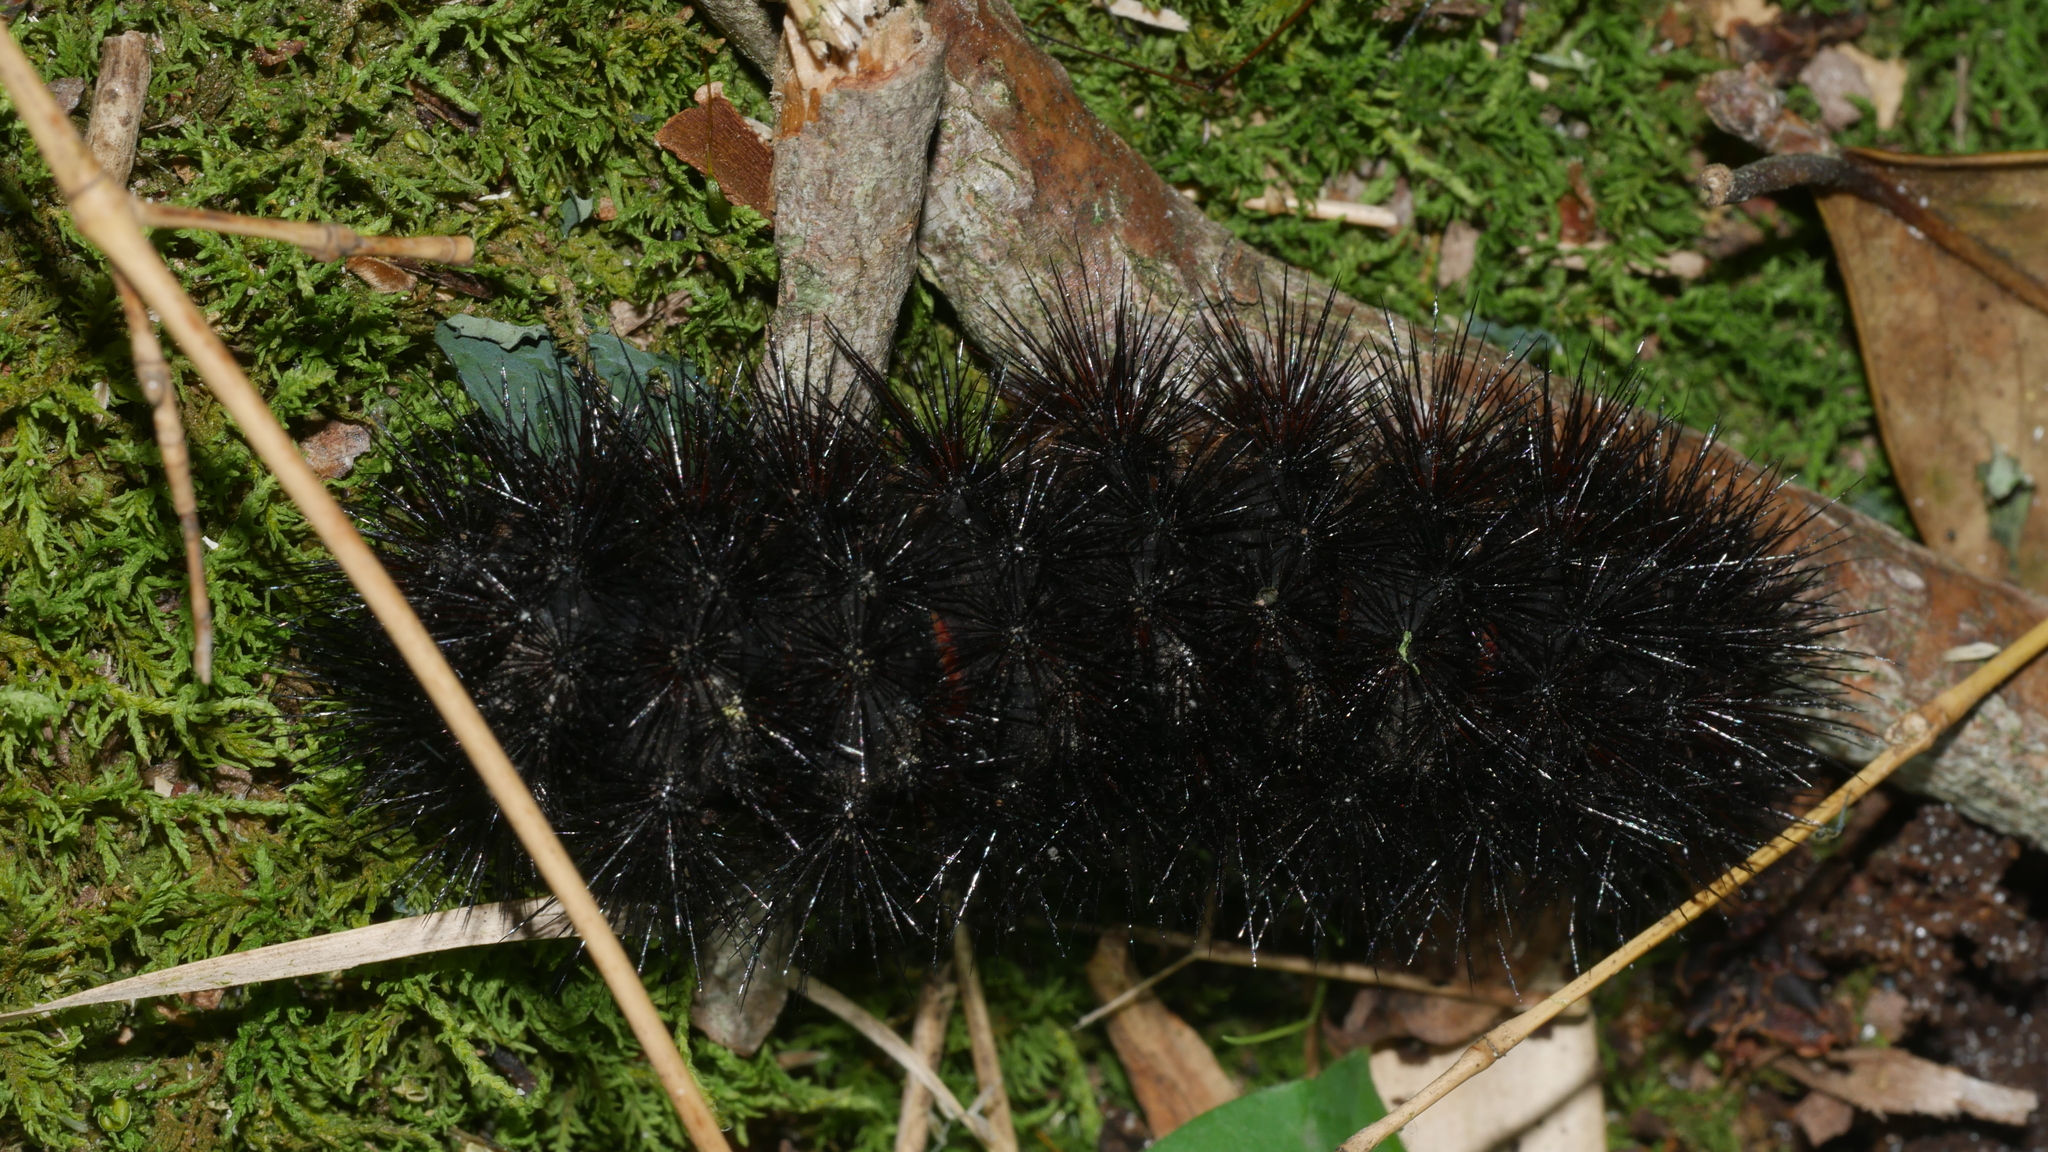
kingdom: Animalia
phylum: Arthropoda
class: Insecta
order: Lepidoptera
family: Erebidae
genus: Hypercompe
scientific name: Hypercompe scribonia
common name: Giant leopard moth
